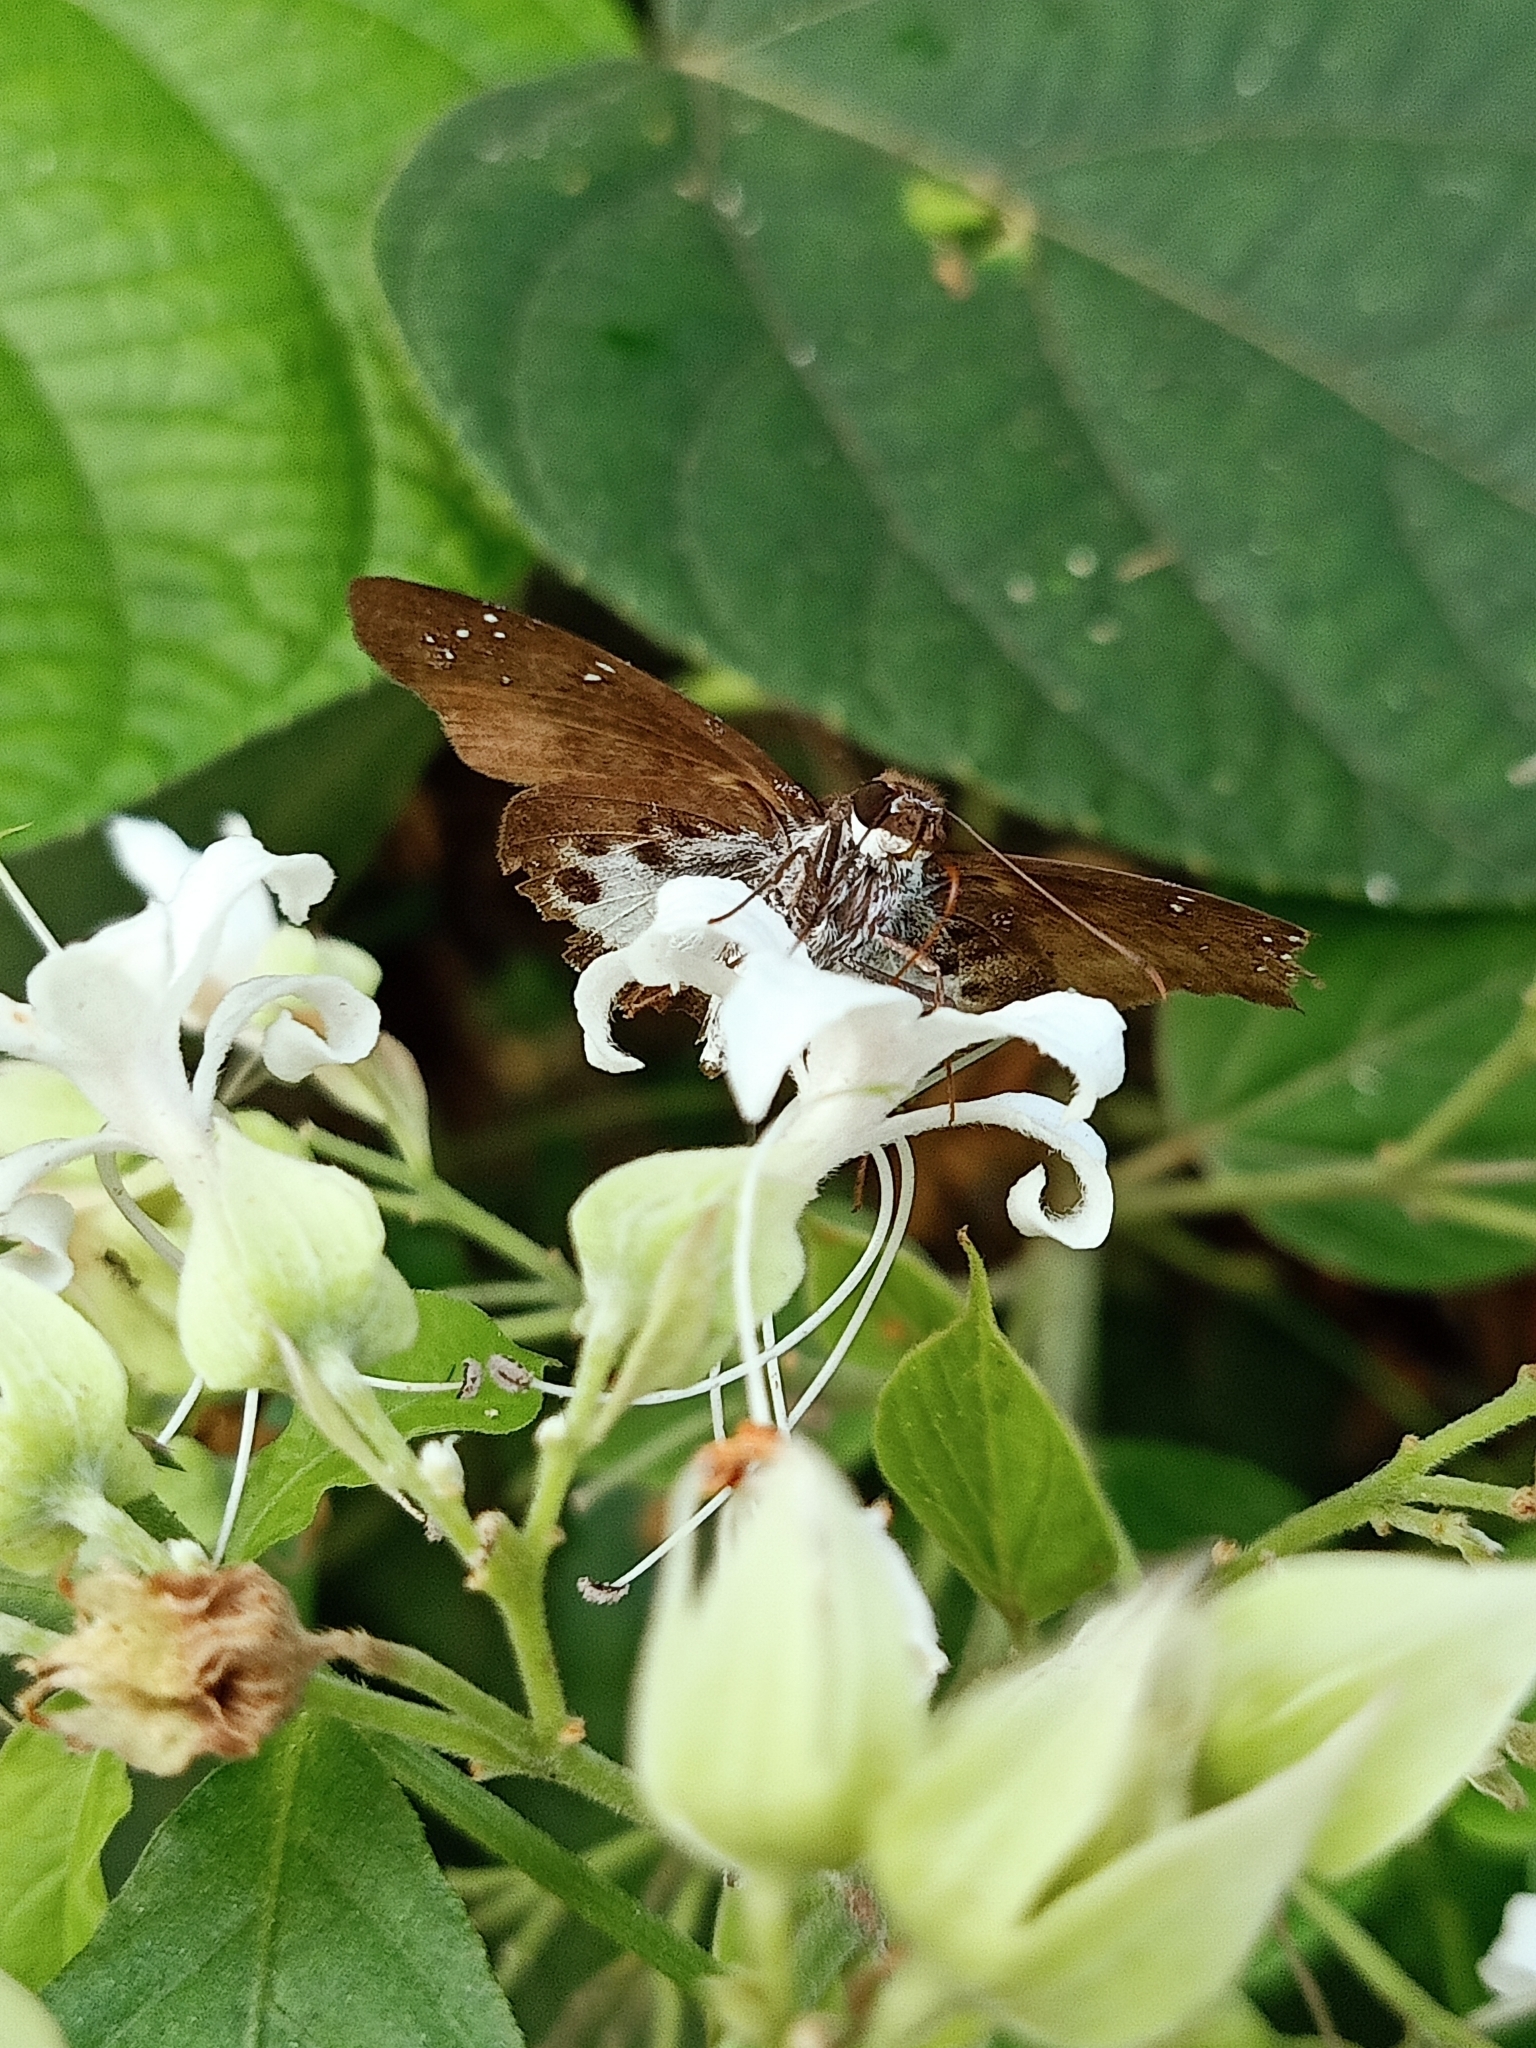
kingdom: Animalia
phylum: Arthropoda
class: Insecta
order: Lepidoptera
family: Hesperiidae
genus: Tagiades
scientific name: Tagiades litigiosa
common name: Water snow flat
